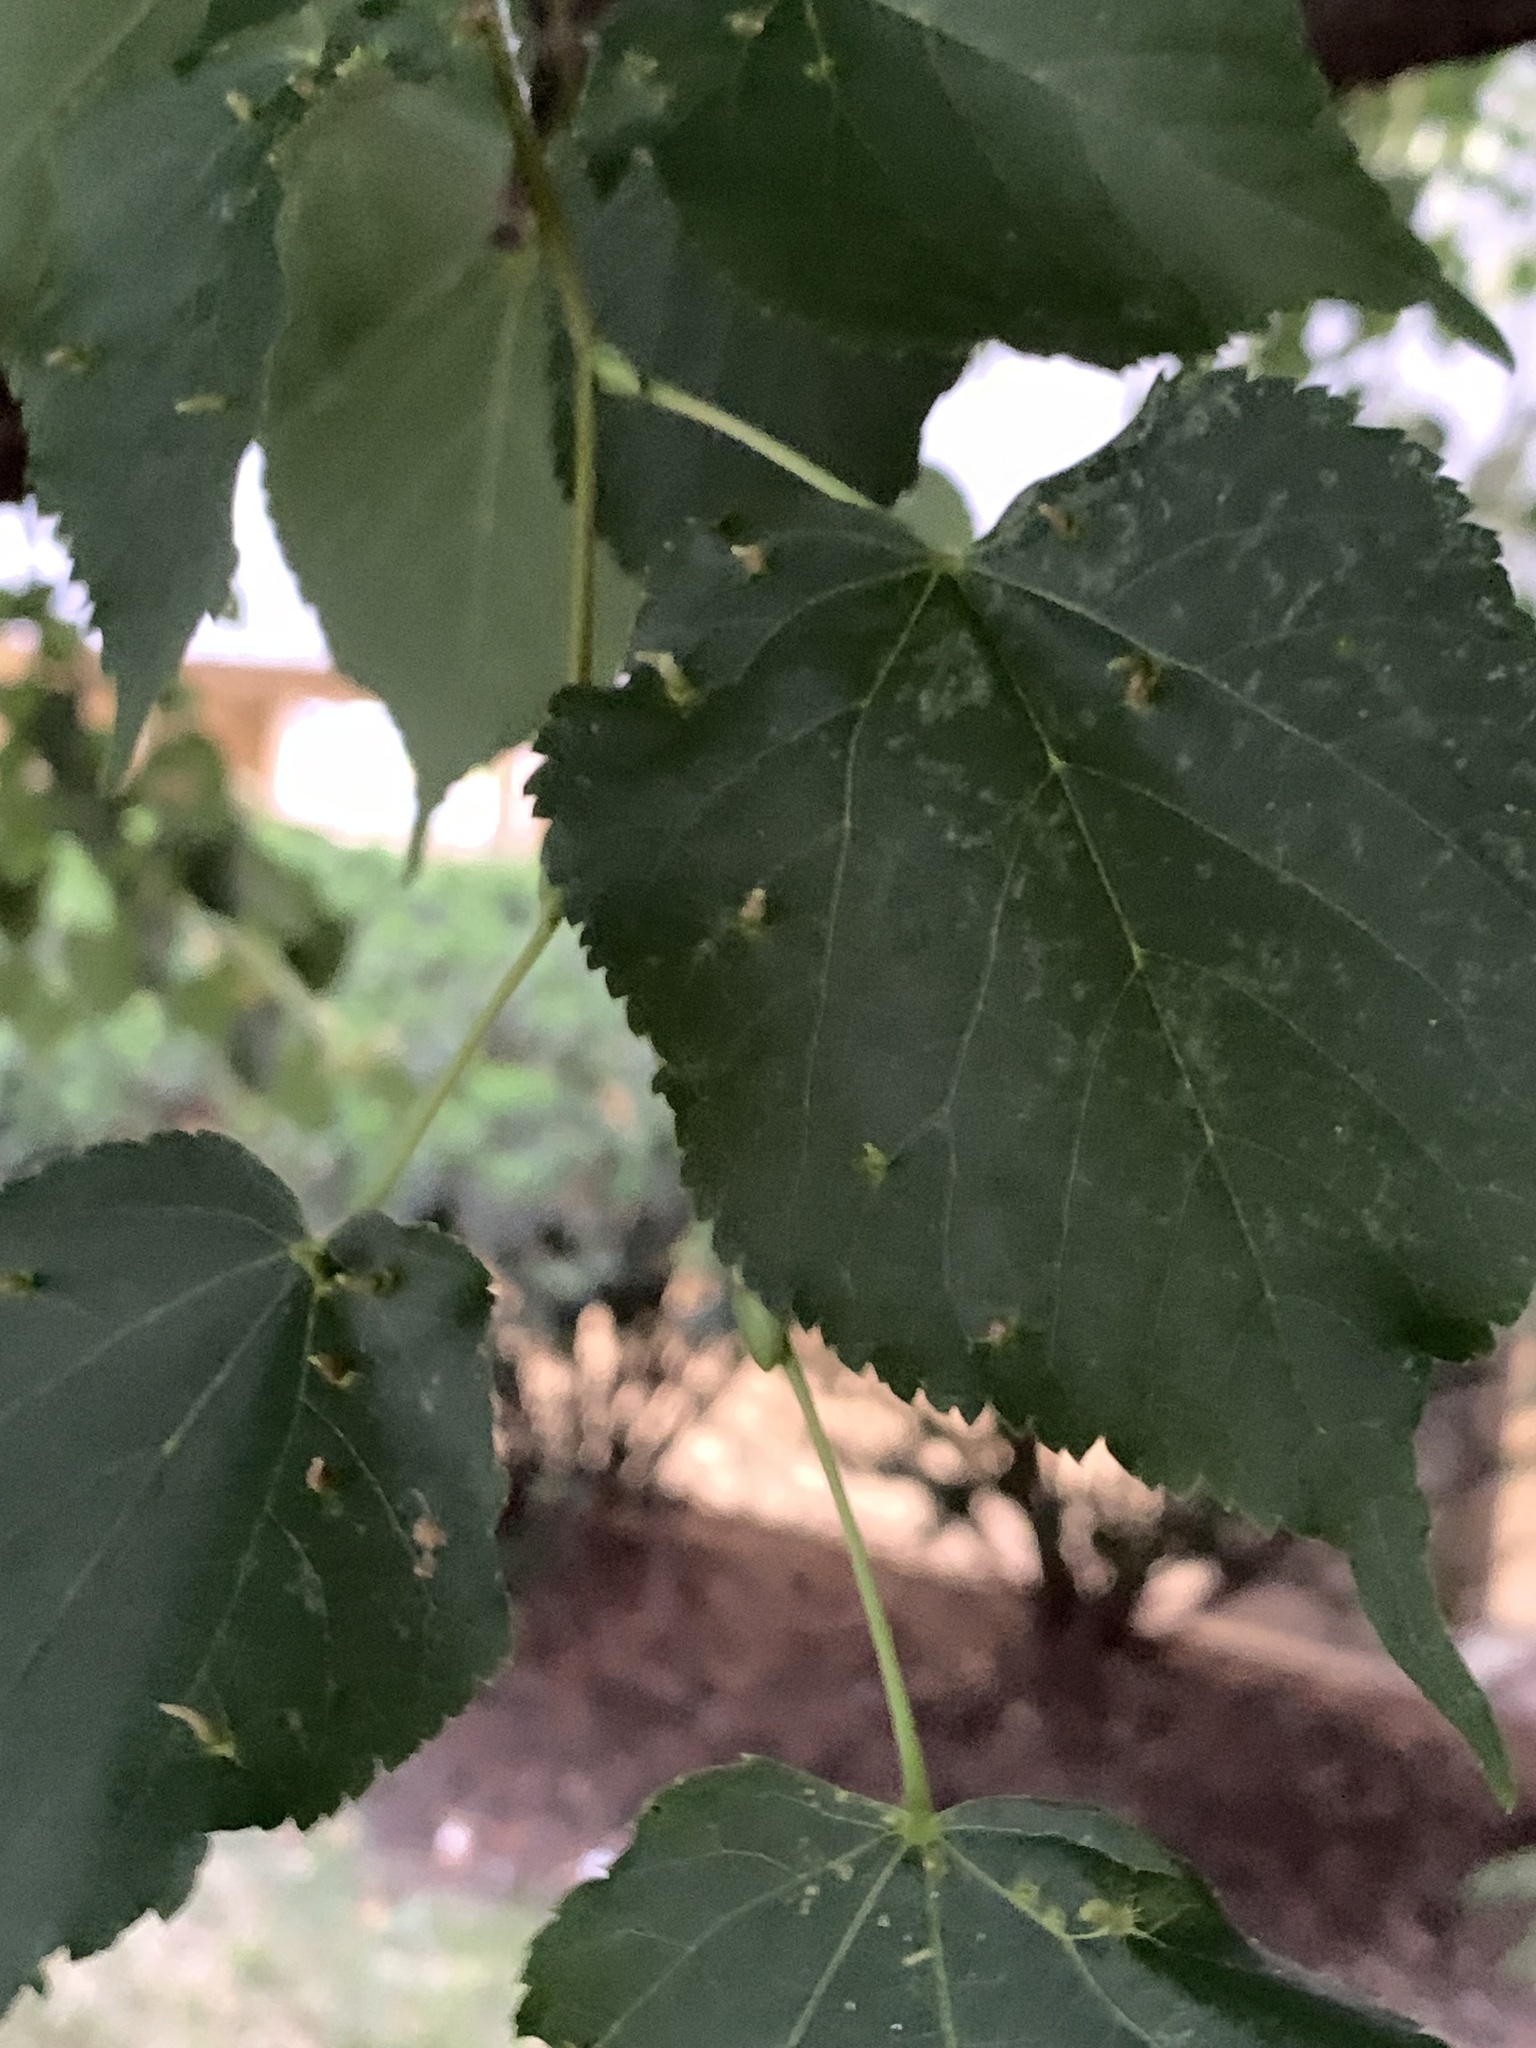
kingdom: Animalia
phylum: Arthropoda
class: Arachnida
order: Trombidiformes
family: Eriophyidae
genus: Eriophyes
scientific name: Eriophyes tiliae
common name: Red nail gall mite
